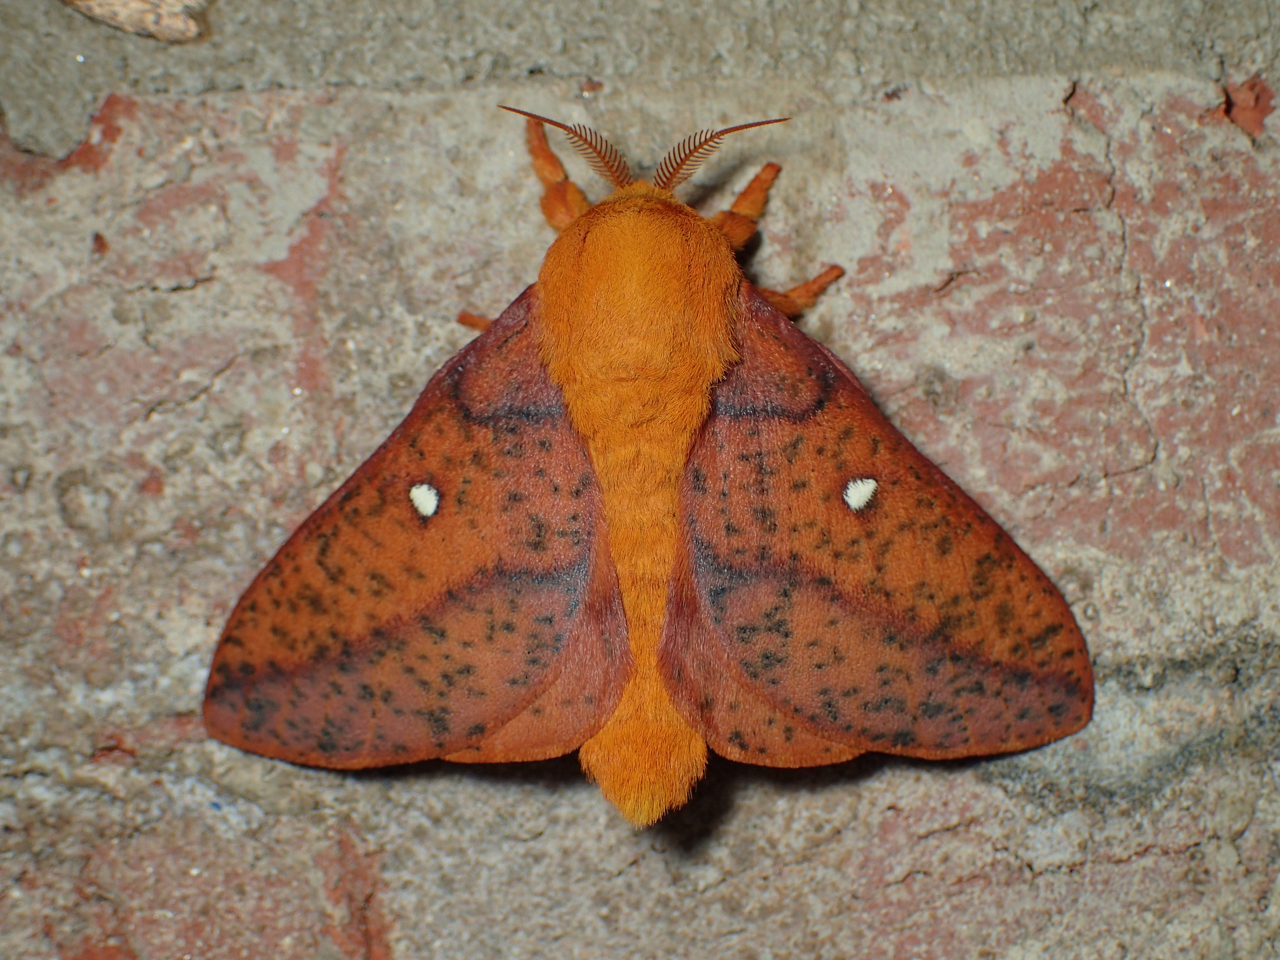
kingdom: Animalia
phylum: Arthropoda
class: Insecta
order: Lepidoptera
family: Saturniidae
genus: Anisota
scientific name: Anisota stigma
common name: Spiny oakworm moth
